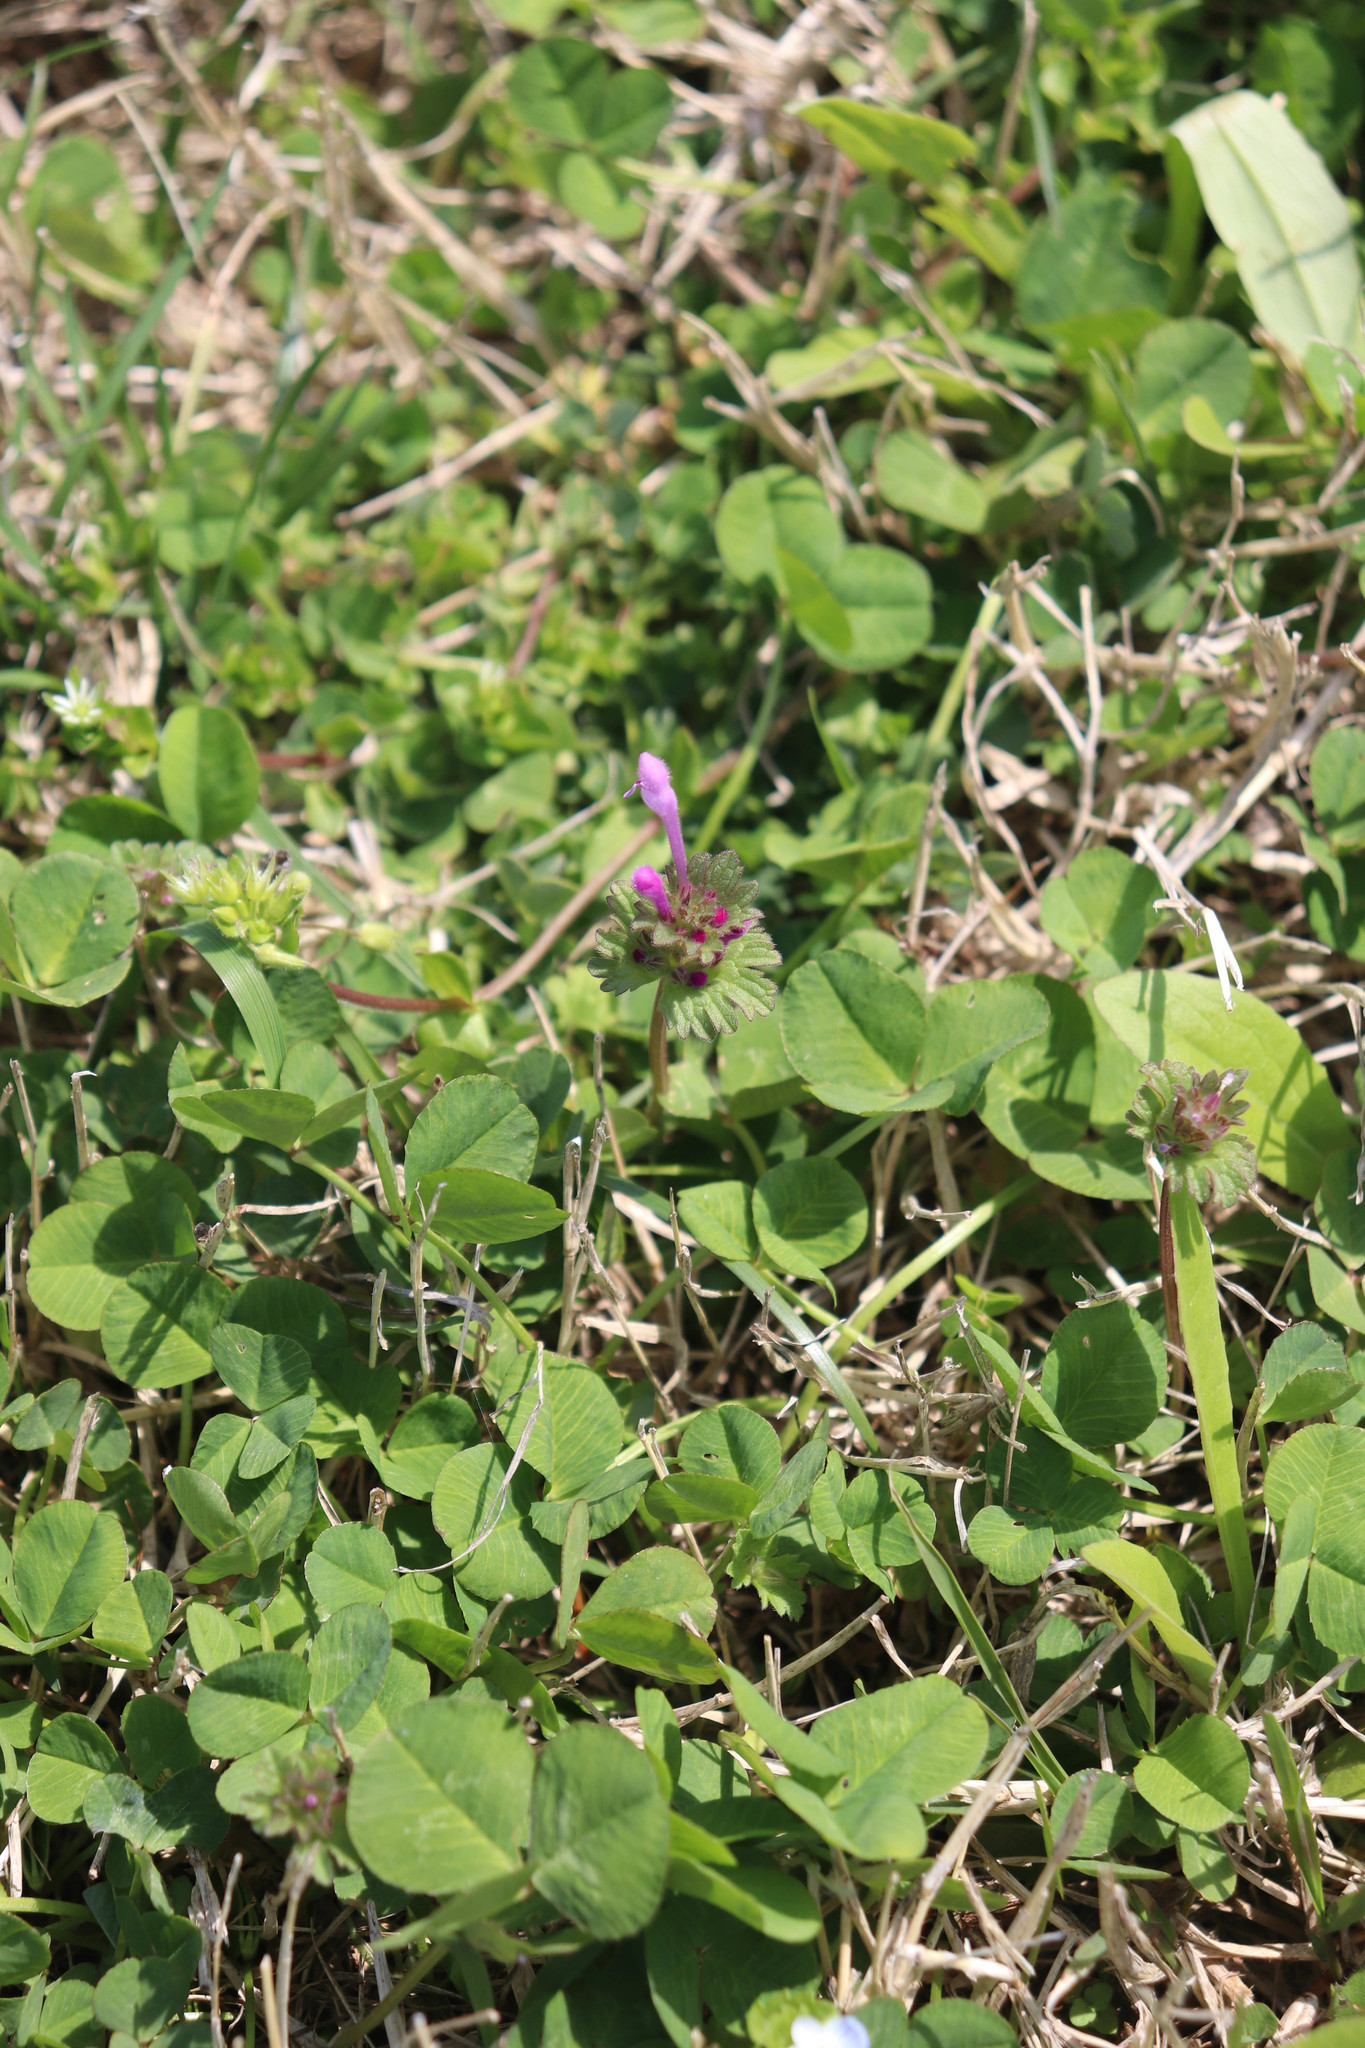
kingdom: Plantae
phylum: Tracheophyta
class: Magnoliopsida
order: Lamiales
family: Lamiaceae
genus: Lamium
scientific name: Lamium amplexicaule
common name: Henbit dead-nettle
